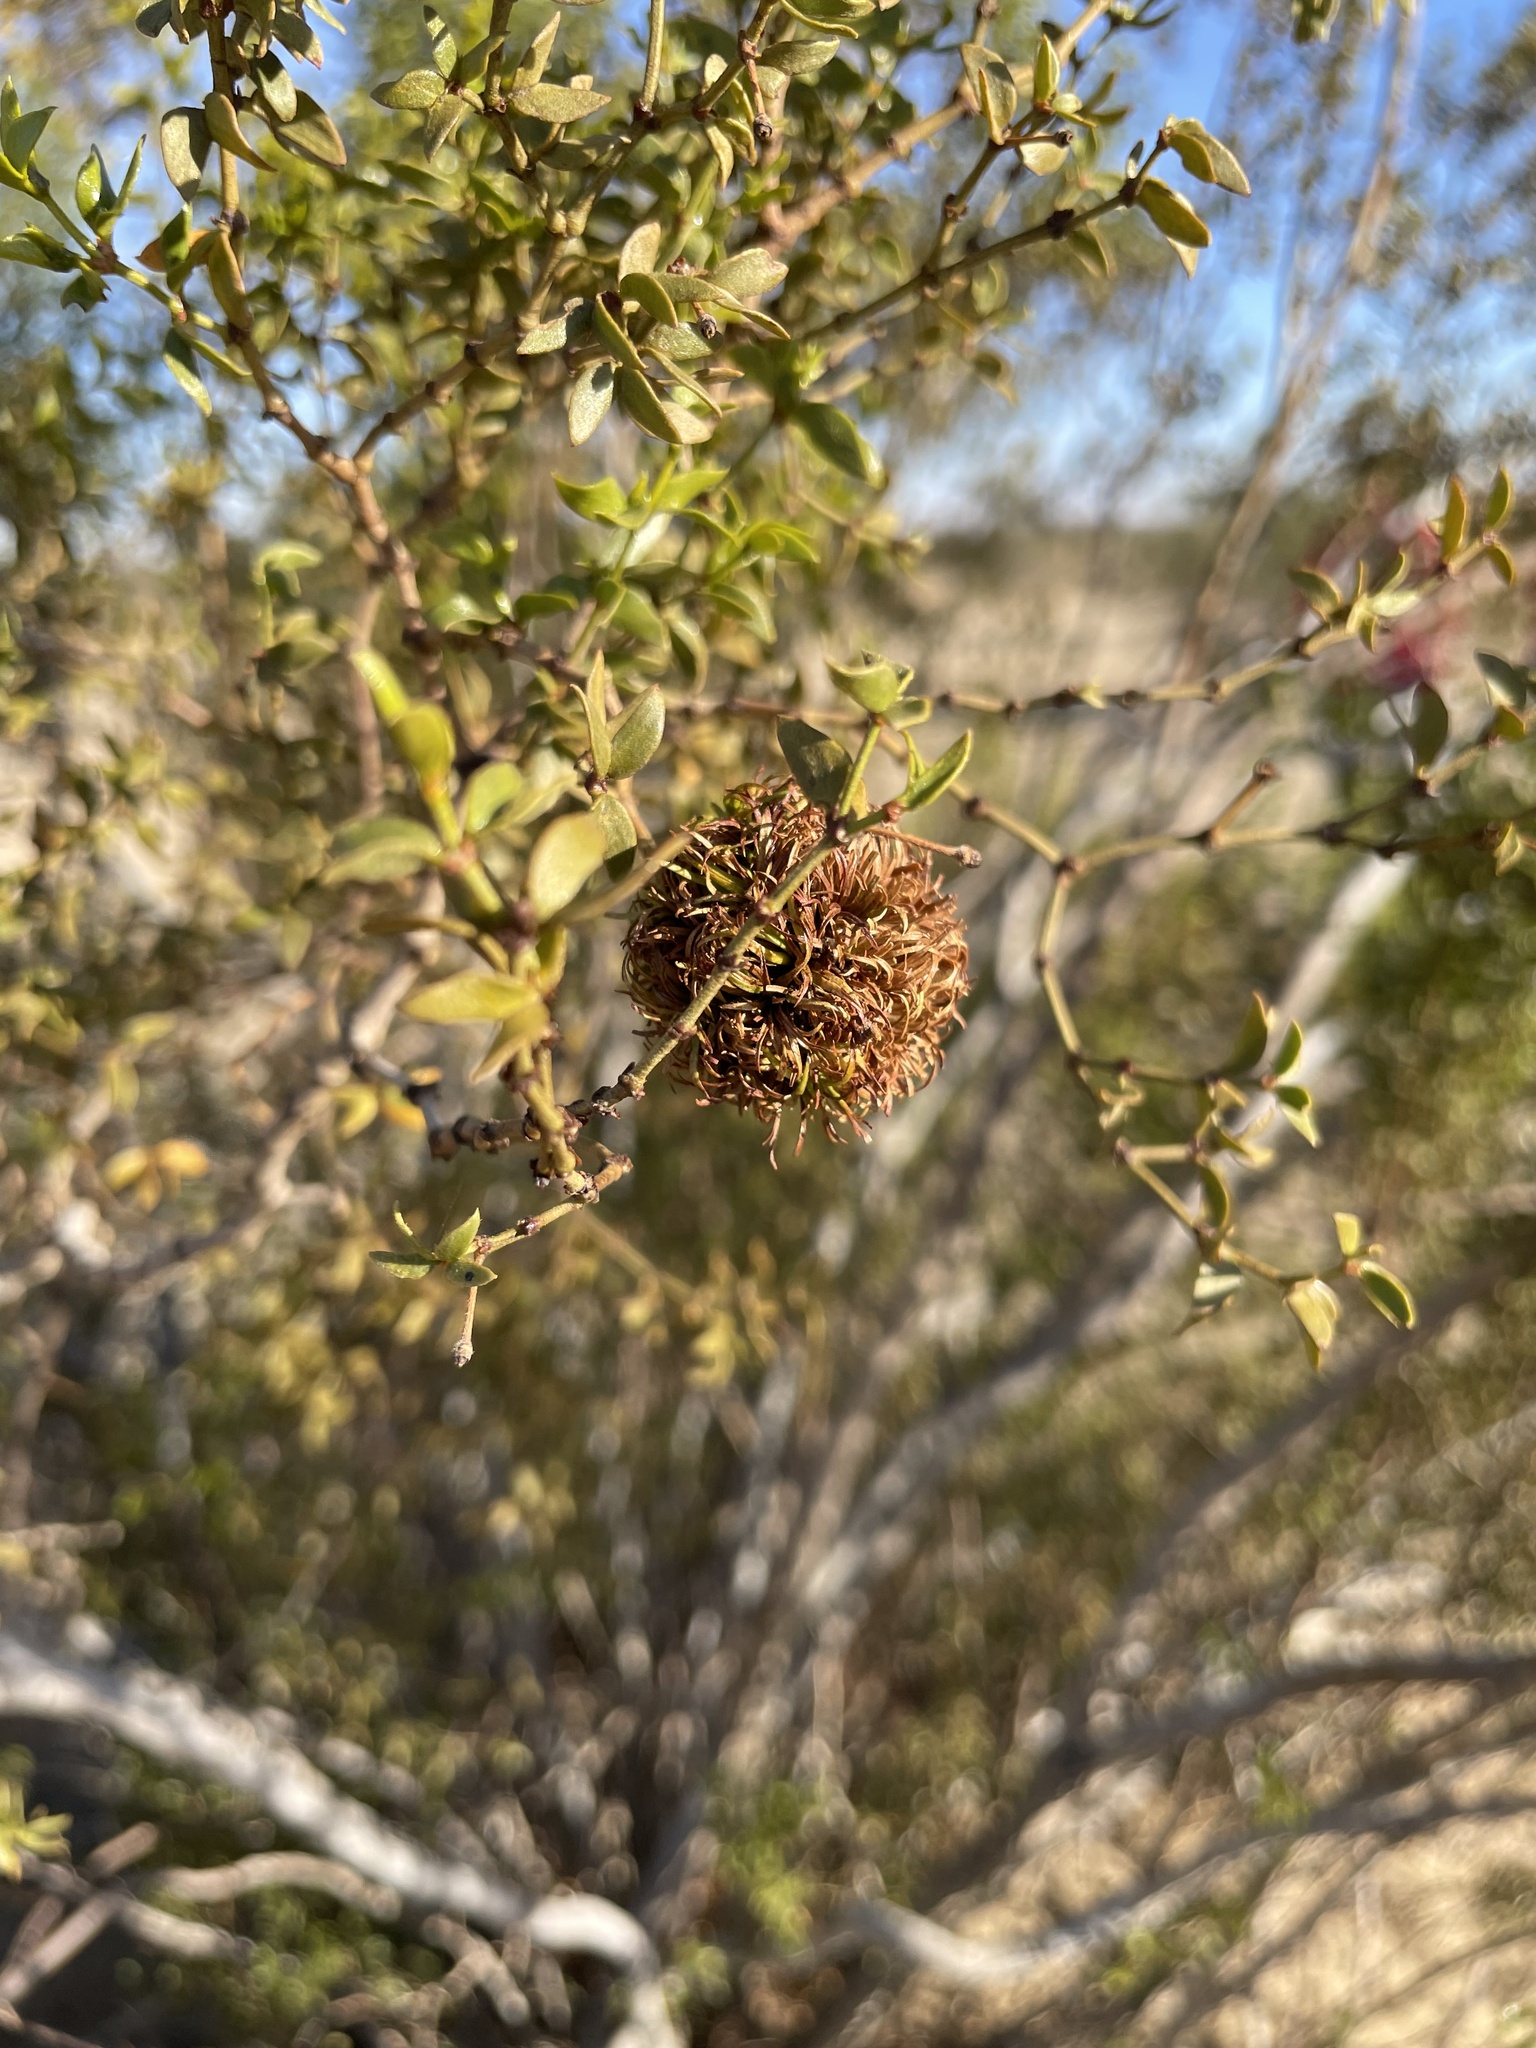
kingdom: Animalia
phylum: Arthropoda
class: Insecta
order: Diptera
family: Cecidomyiidae
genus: Asphondylia
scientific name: Asphondylia auripila
